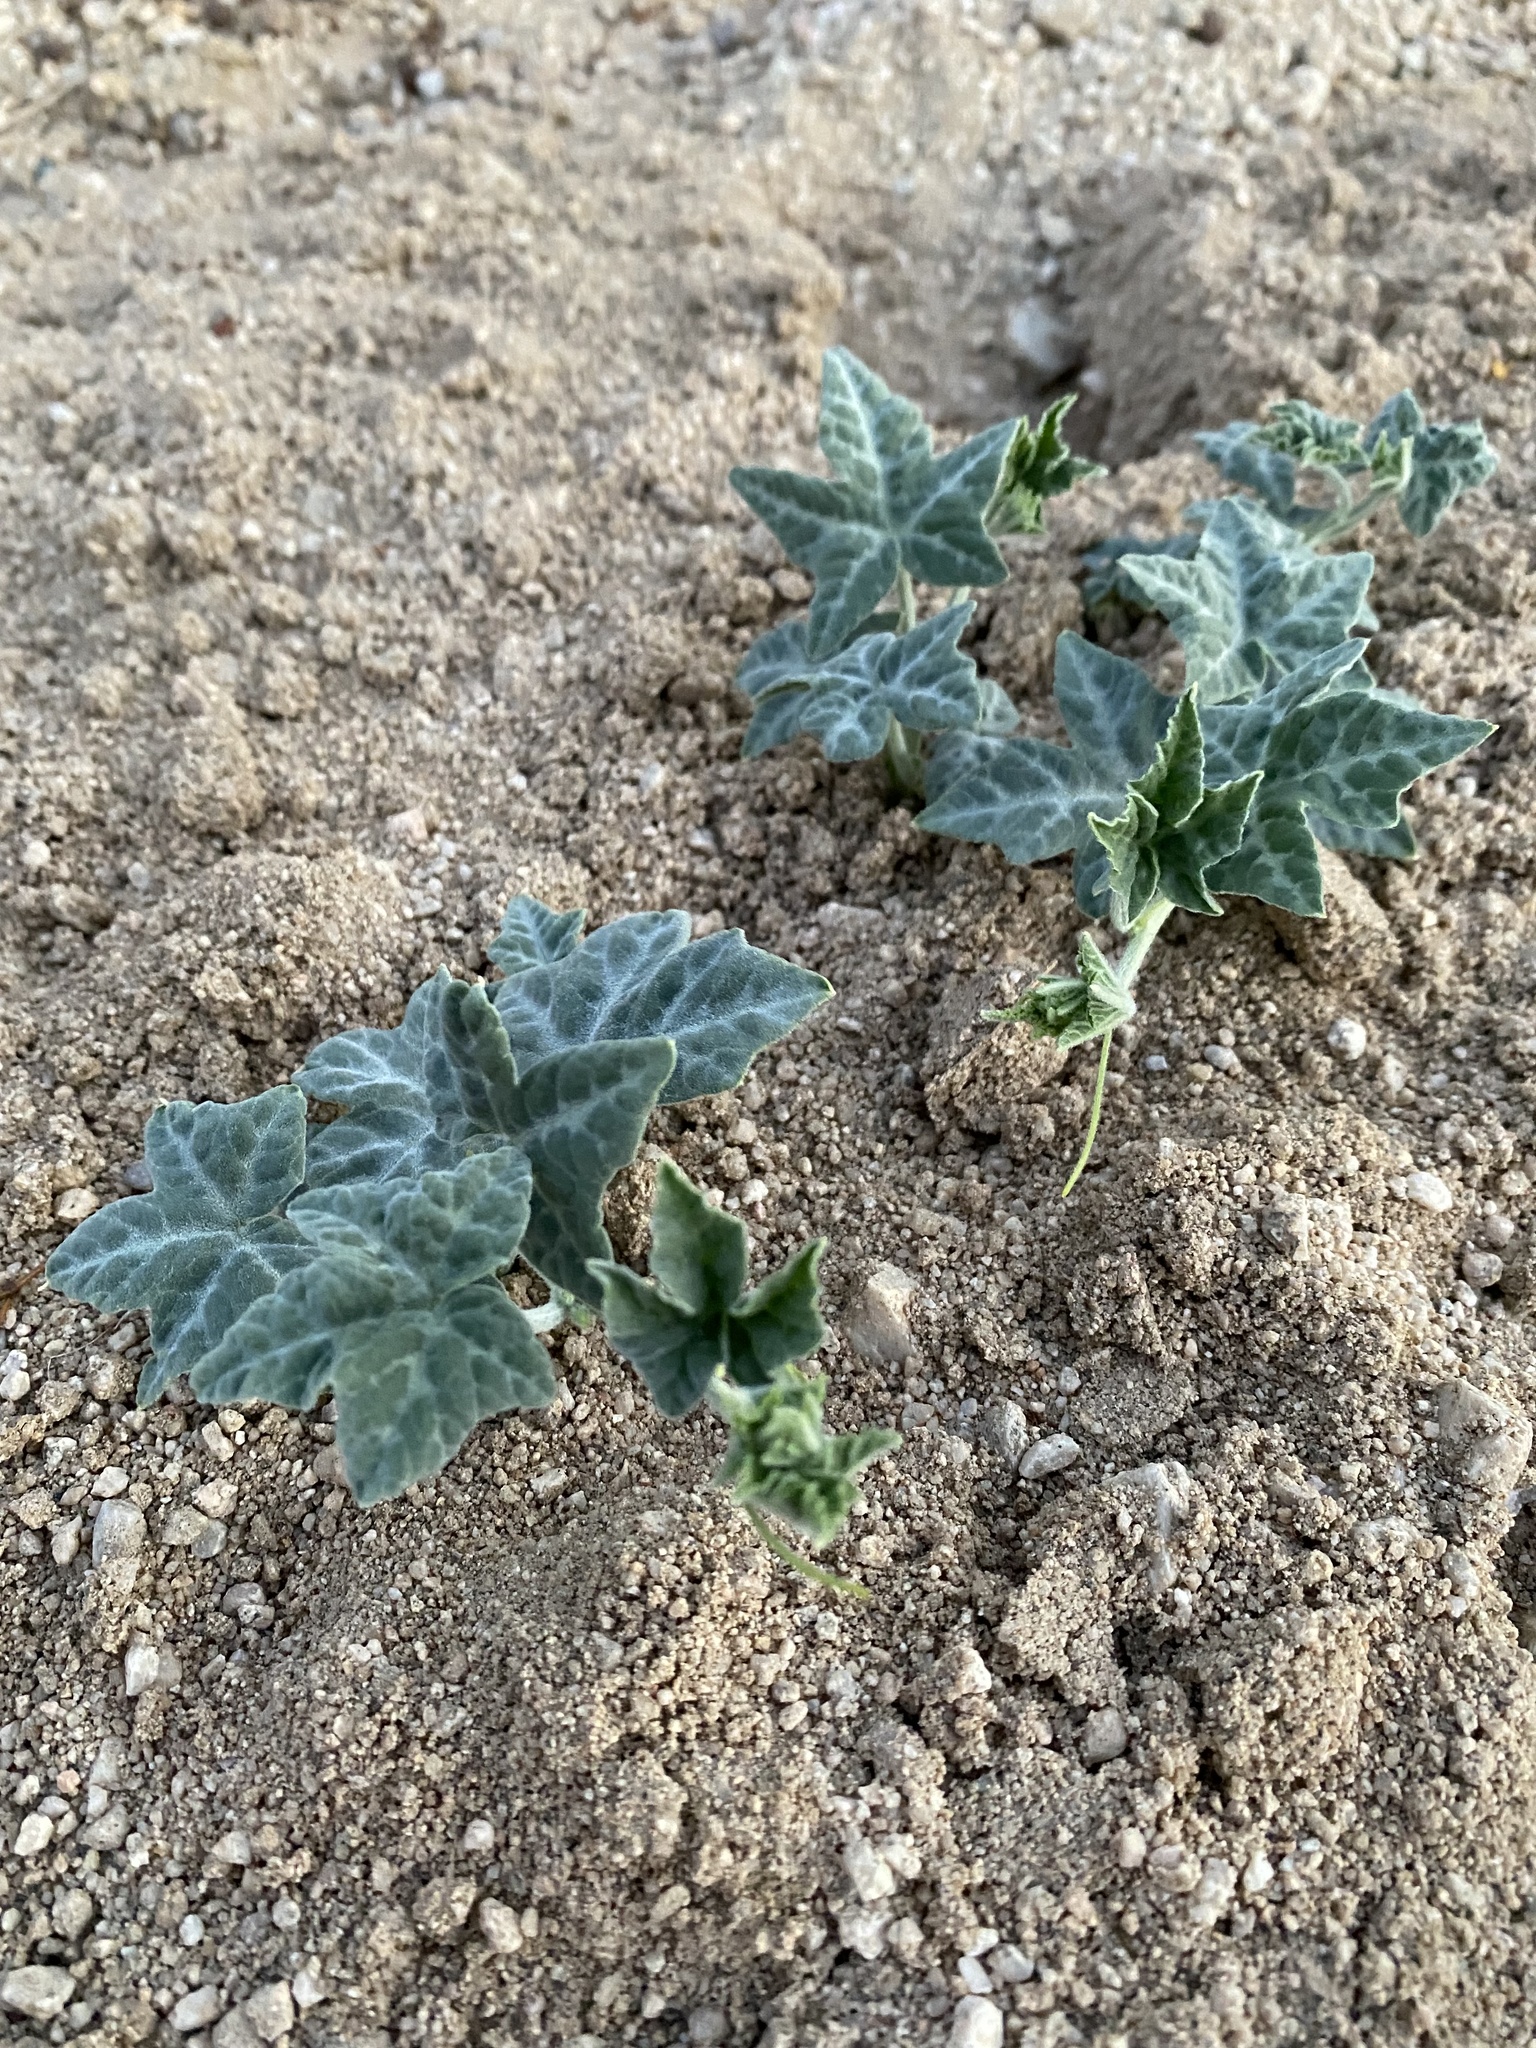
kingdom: Plantae
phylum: Tracheophyta
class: Magnoliopsida
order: Cucurbitales
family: Cucurbitaceae
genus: Cucurbita
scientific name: Cucurbita palmata
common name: Coyote-melon
